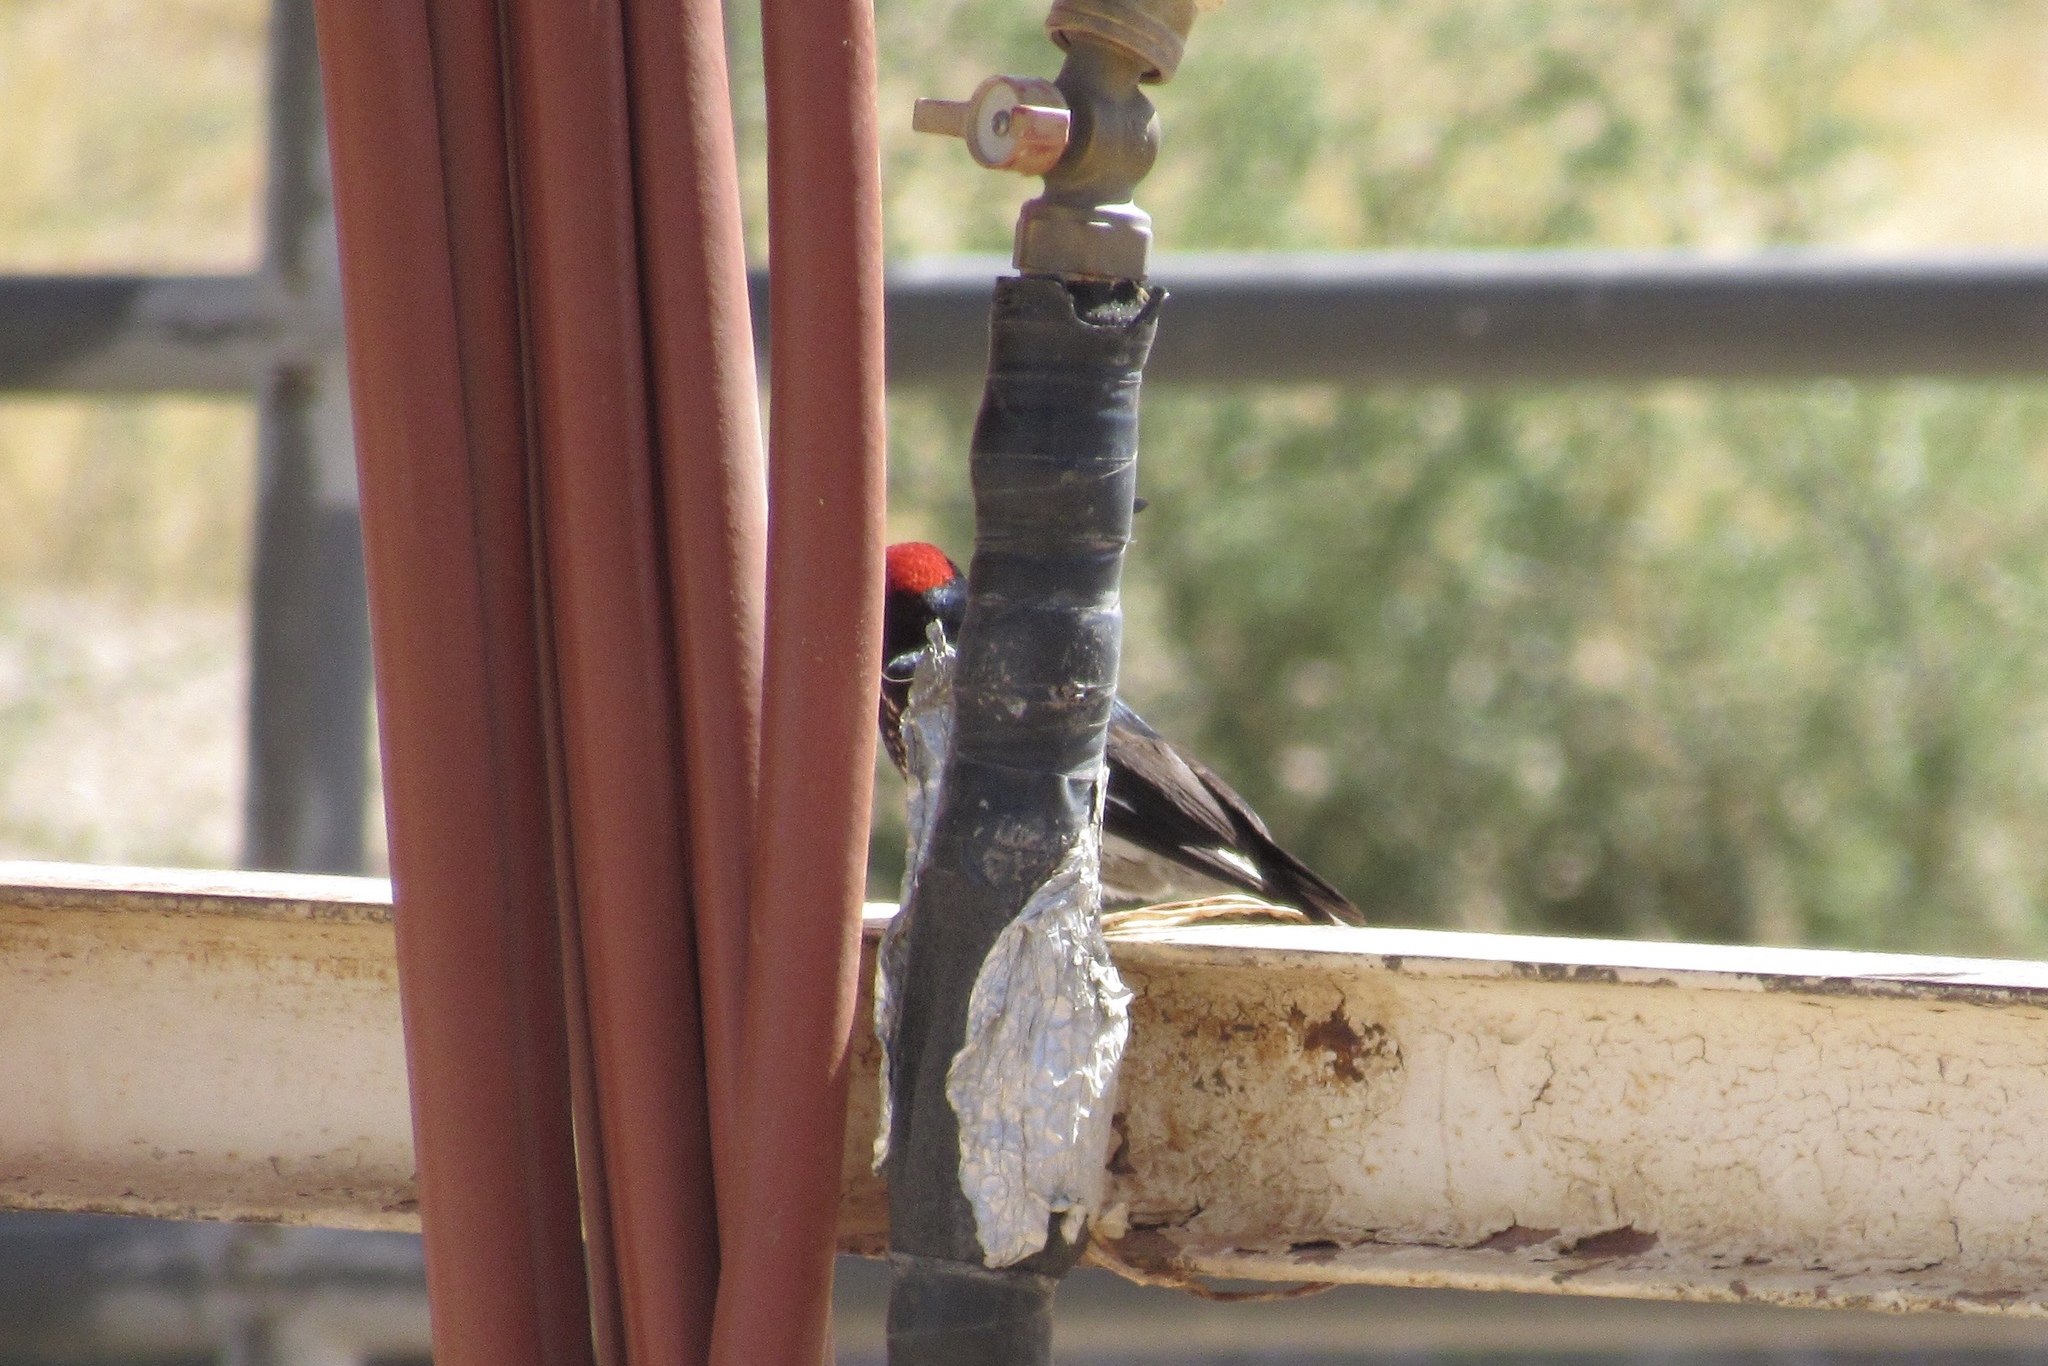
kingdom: Animalia
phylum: Chordata
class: Aves
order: Piciformes
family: Picidae
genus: Melanerpes
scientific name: Melanerpes formicivorus
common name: Acorn woodpecker
